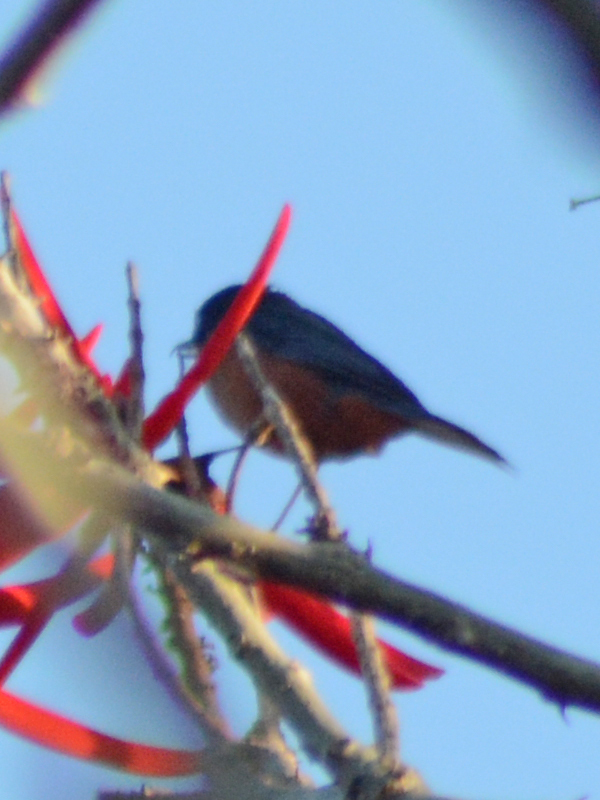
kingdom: Animalia
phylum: Chordata
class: Aves
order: Passeriformes
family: Thraupidae
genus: Diglossa
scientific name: Diglossa baritula
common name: Cinnamon-bellied flowerpiercer
